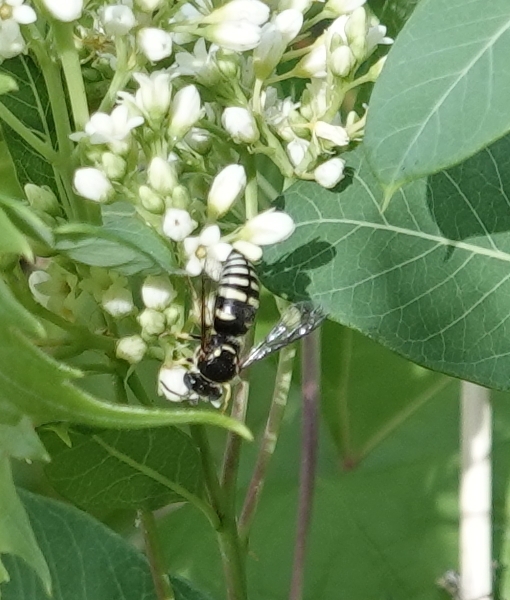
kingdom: Animalia
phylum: Arthropoda
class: Insecta
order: Hymenoptera
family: Crabronidae
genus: Bicyrtes
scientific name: Bicyrtes ventralis
